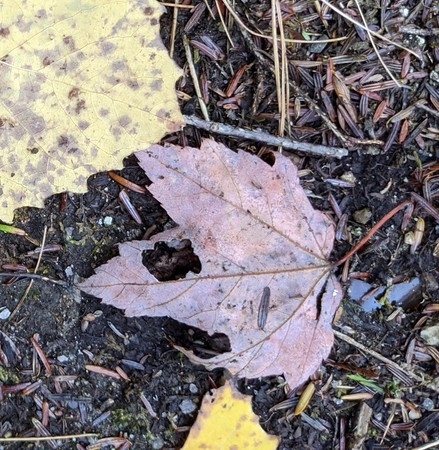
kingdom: Plantae
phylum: Tracheophyta
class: Magnoliopsida
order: Sapindales
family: Sapindaceae
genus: Acer
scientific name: Acer rubrum
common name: Red maple
